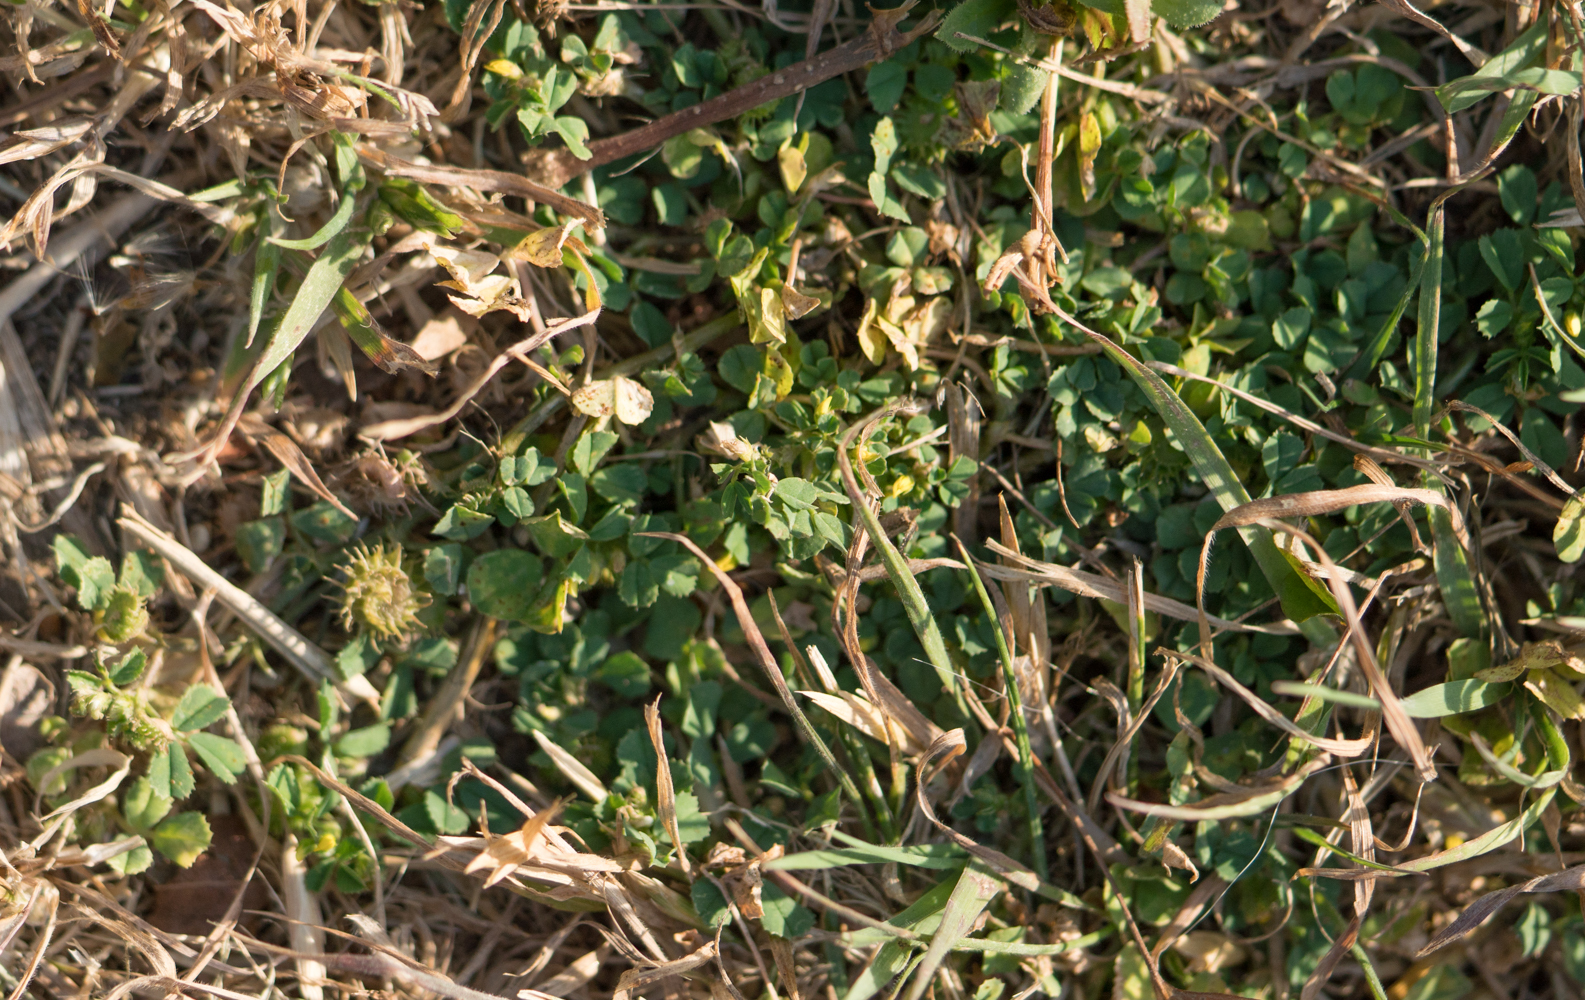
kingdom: Plantae
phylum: Tracheophyta
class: Magnoliopsida
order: Fabales
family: Fabaceae
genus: Medicago
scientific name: Medicago polymorpha
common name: Burclover
